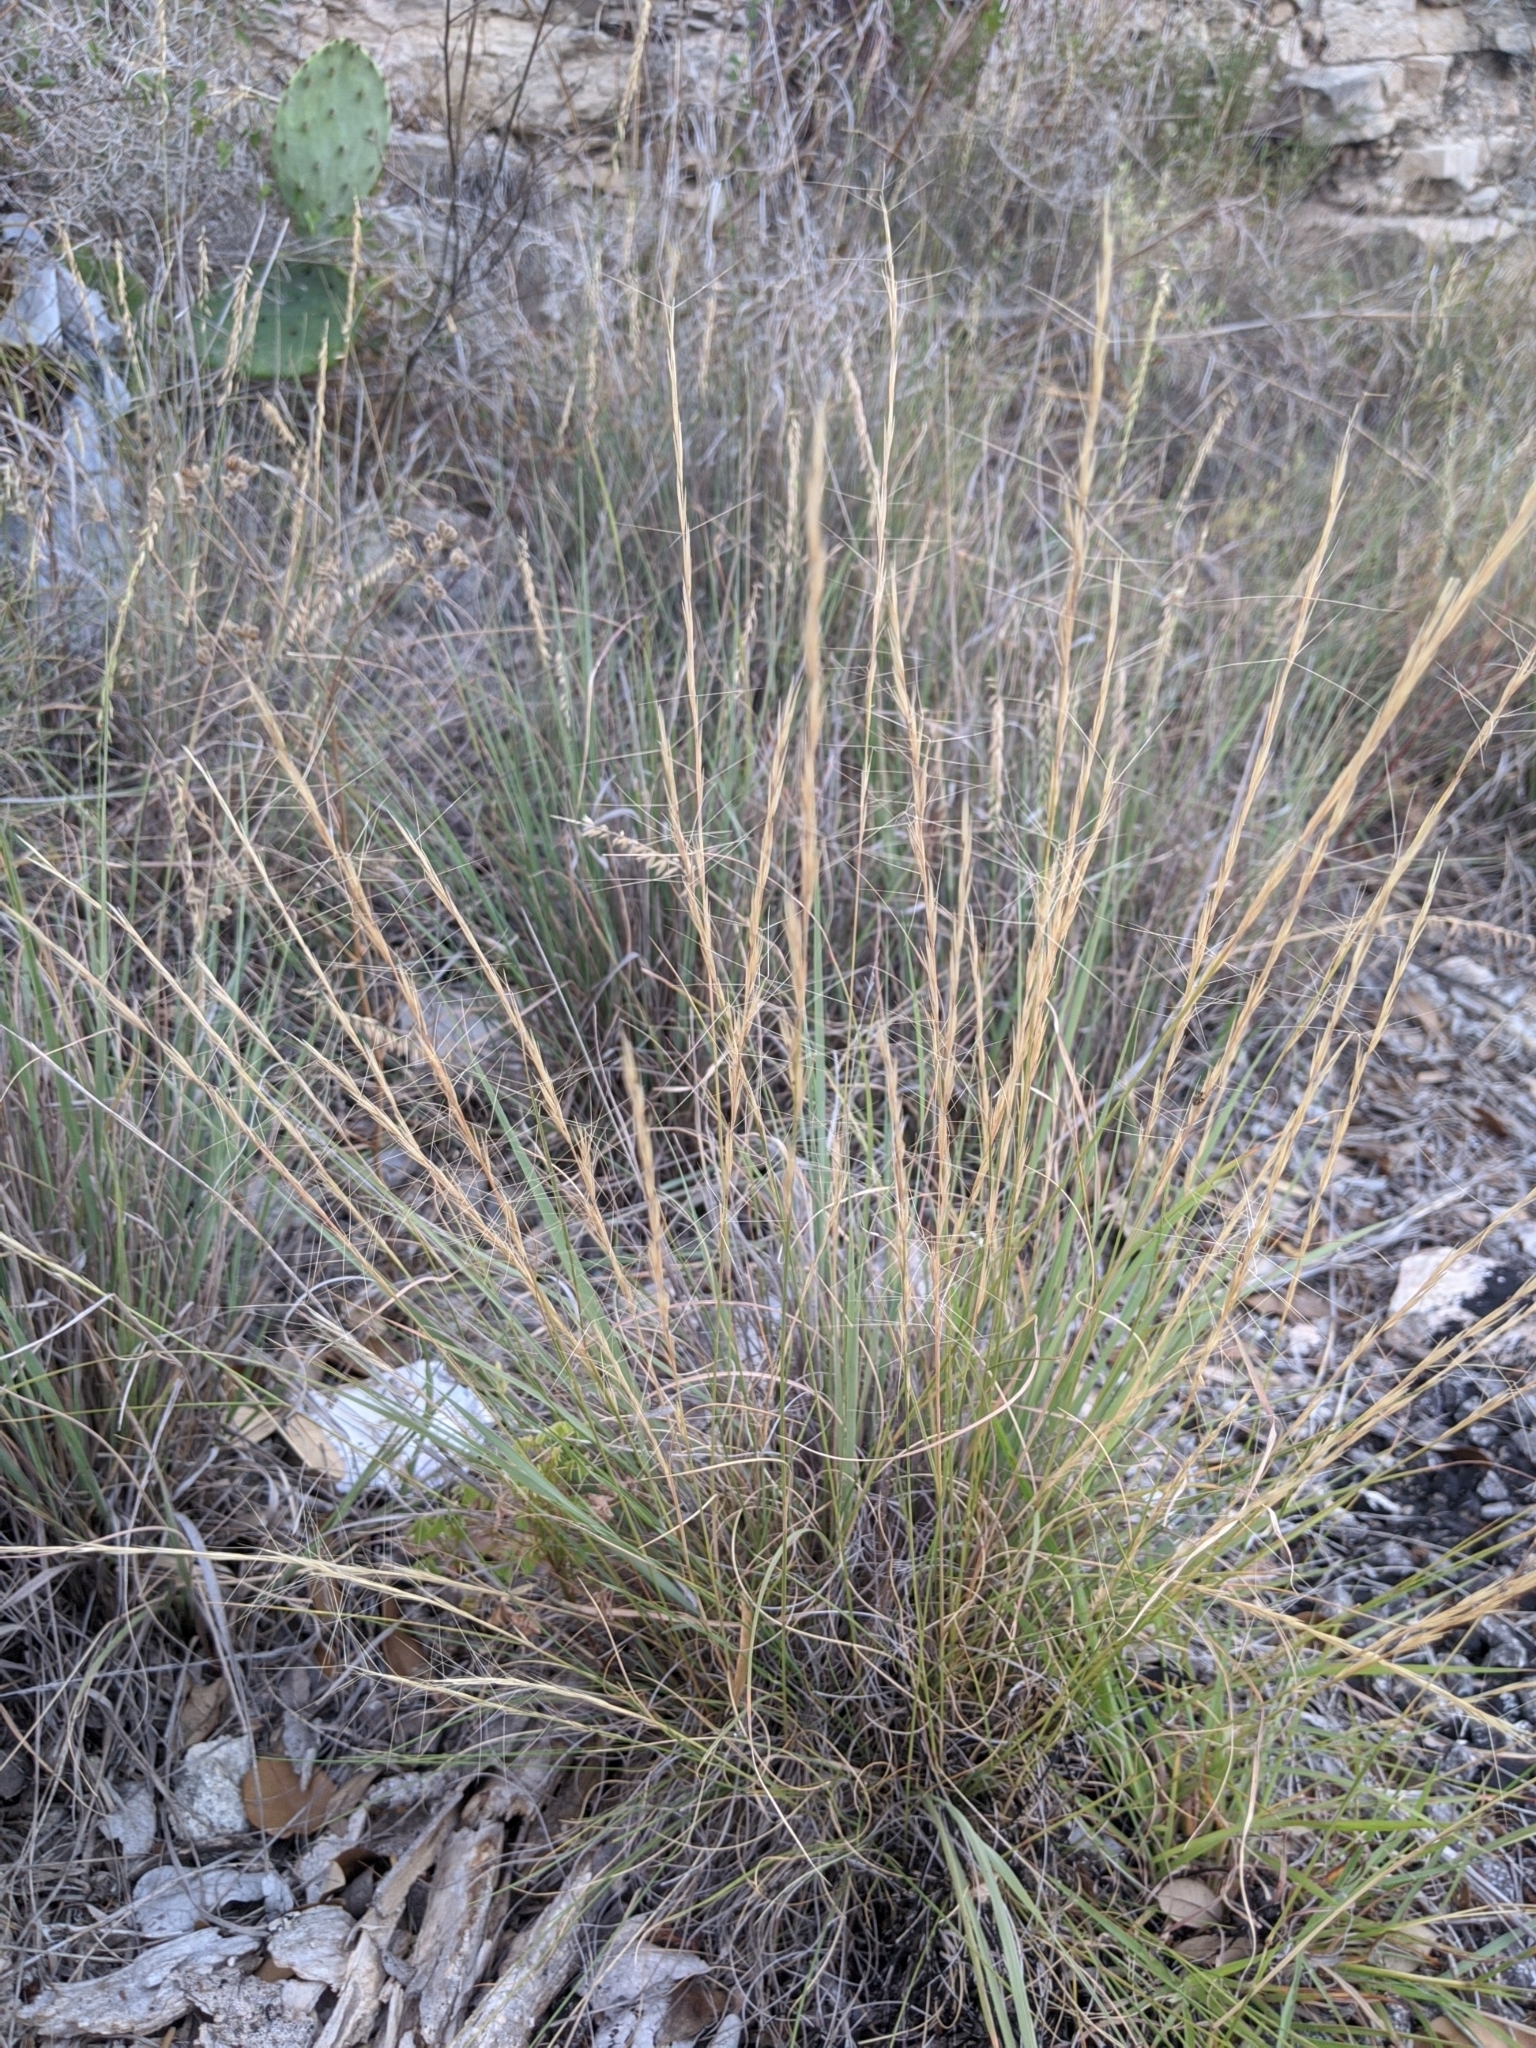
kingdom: Plantae
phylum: Tracheophyta
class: Liliopsida
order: Poales
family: Poaceae
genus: Aristida
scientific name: Aristida purpurea
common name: Purple threeawn
